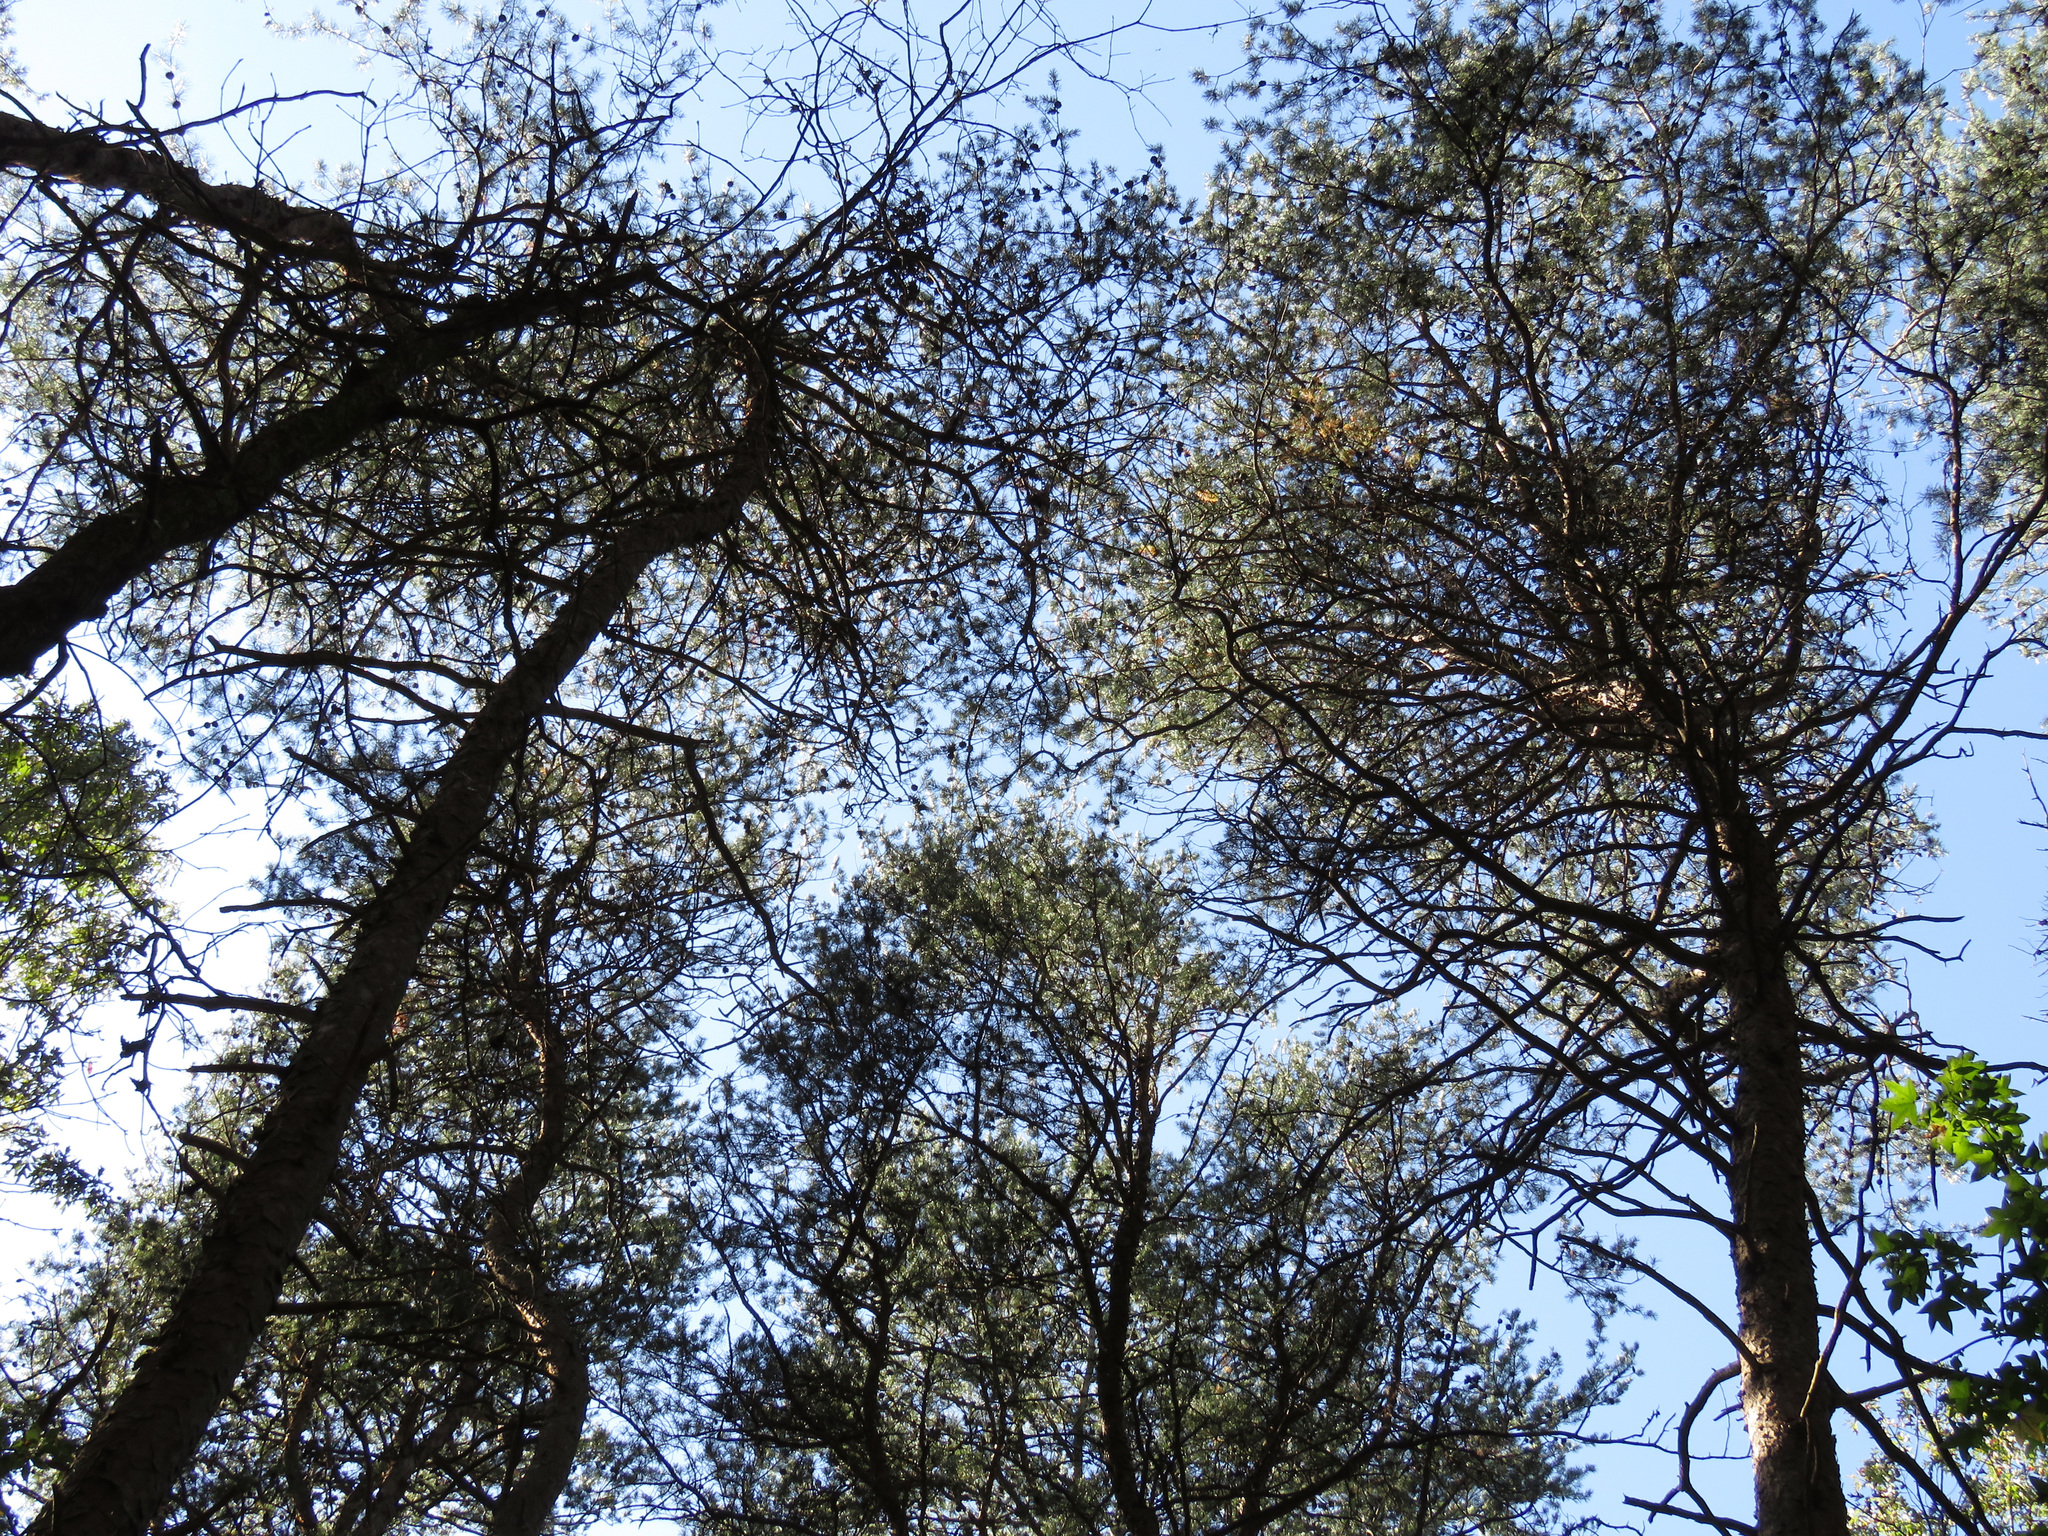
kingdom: Plantae
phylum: Tracheophyta
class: Pinopsida
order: Pinales
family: Pinaceae
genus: Pinus
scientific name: Pinus virginiana
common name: Scrub pine
